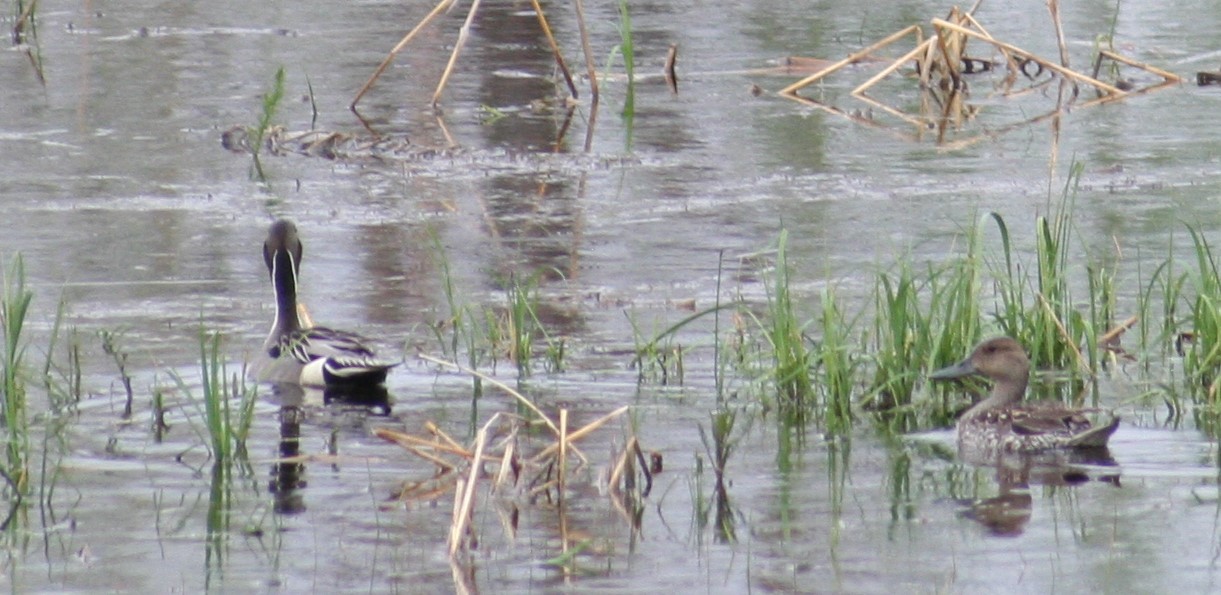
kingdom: Animalia
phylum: Chordata
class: Aves
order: Anseriformes
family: Anatidae
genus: Anas
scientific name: Anas acuta
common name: Northern pintail
